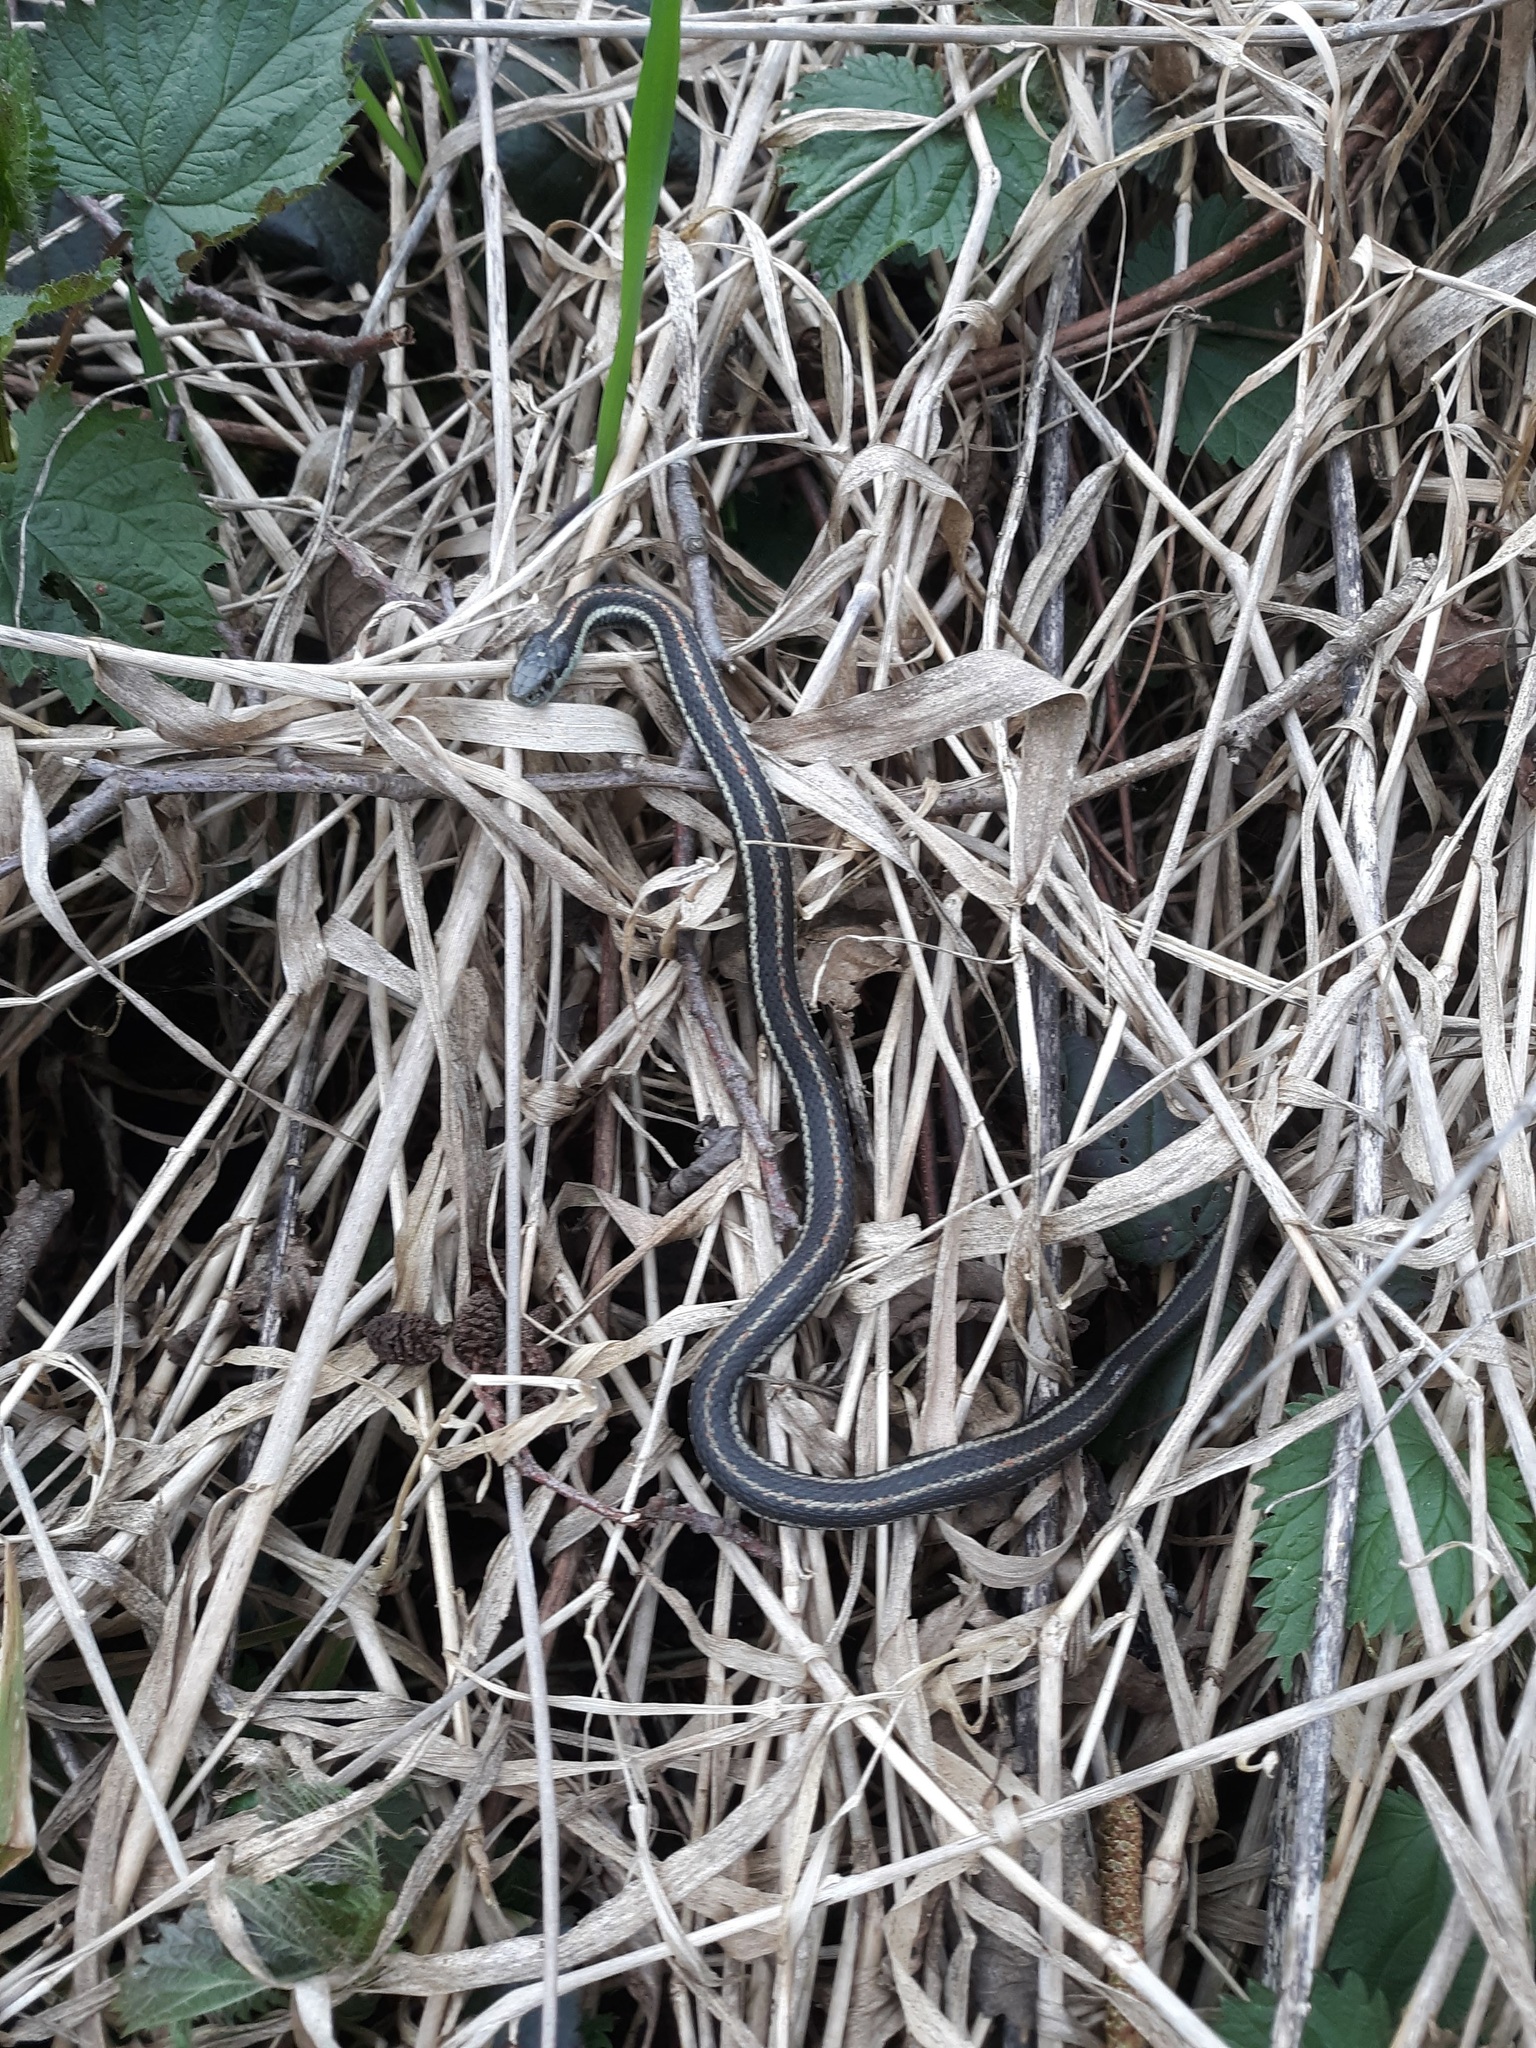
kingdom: Animalia
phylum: Chordata
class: Squamata
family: Colubridae
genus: Thamnophis
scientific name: Thamnophis ordinoides
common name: Northwestern garter snake
